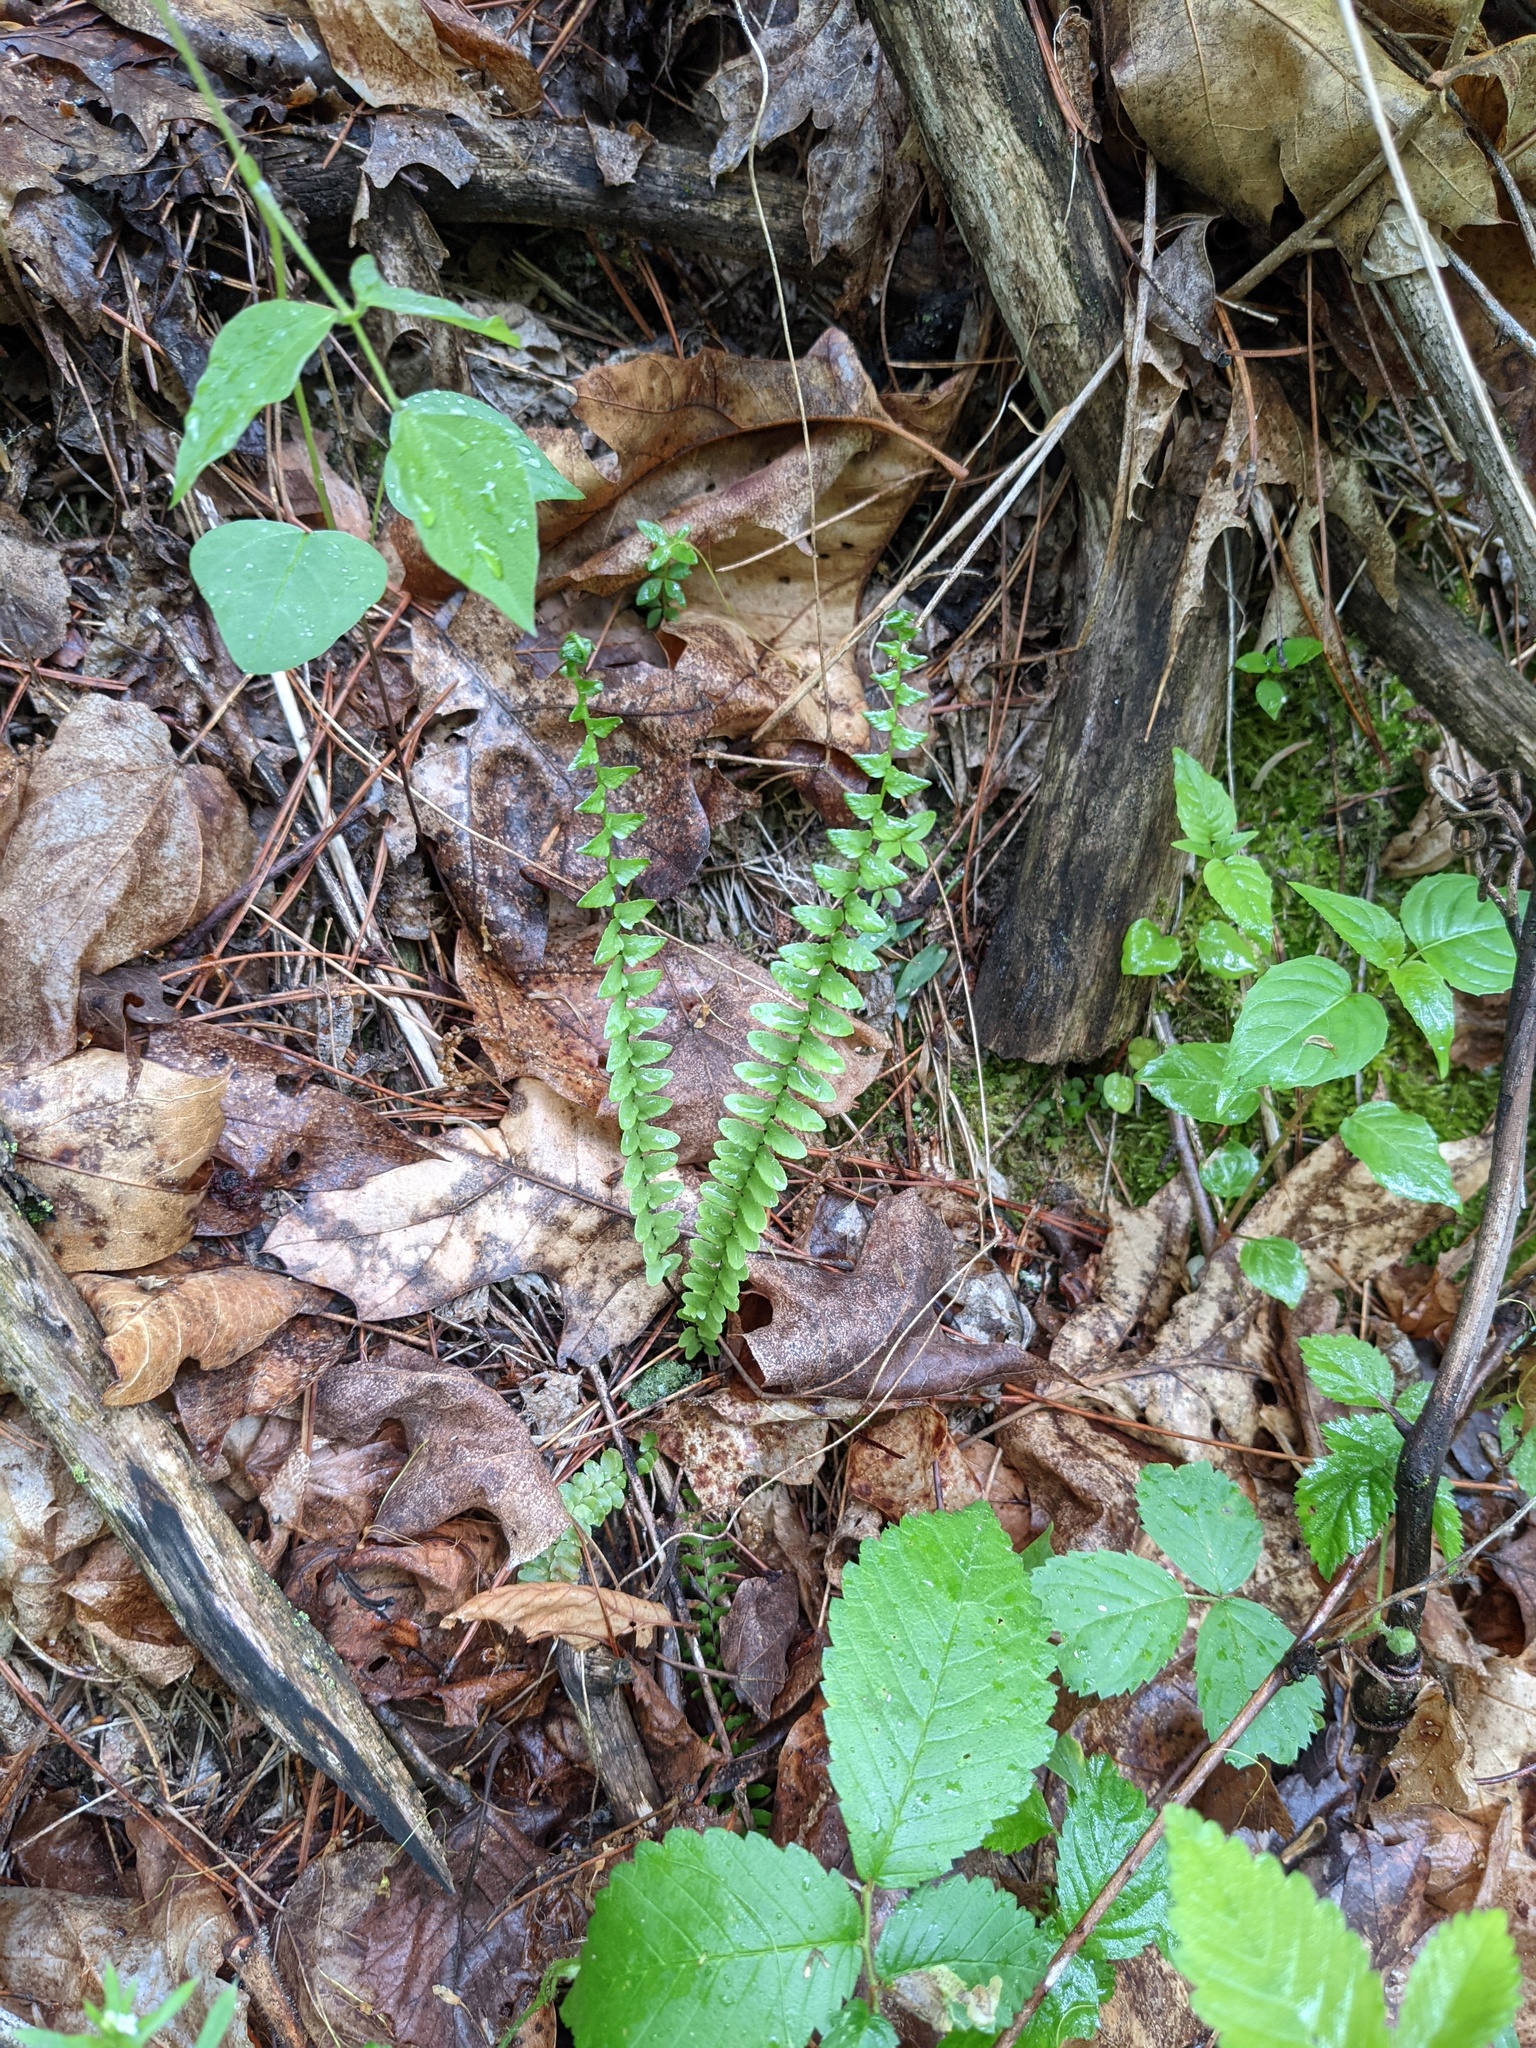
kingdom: Plantae
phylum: Tracheophyta
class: Polypodiopsida
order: Polypodiales
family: Aspleniaceae
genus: Asplenium
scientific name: Asplenium platyneuron
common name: Ebony spleenwort
